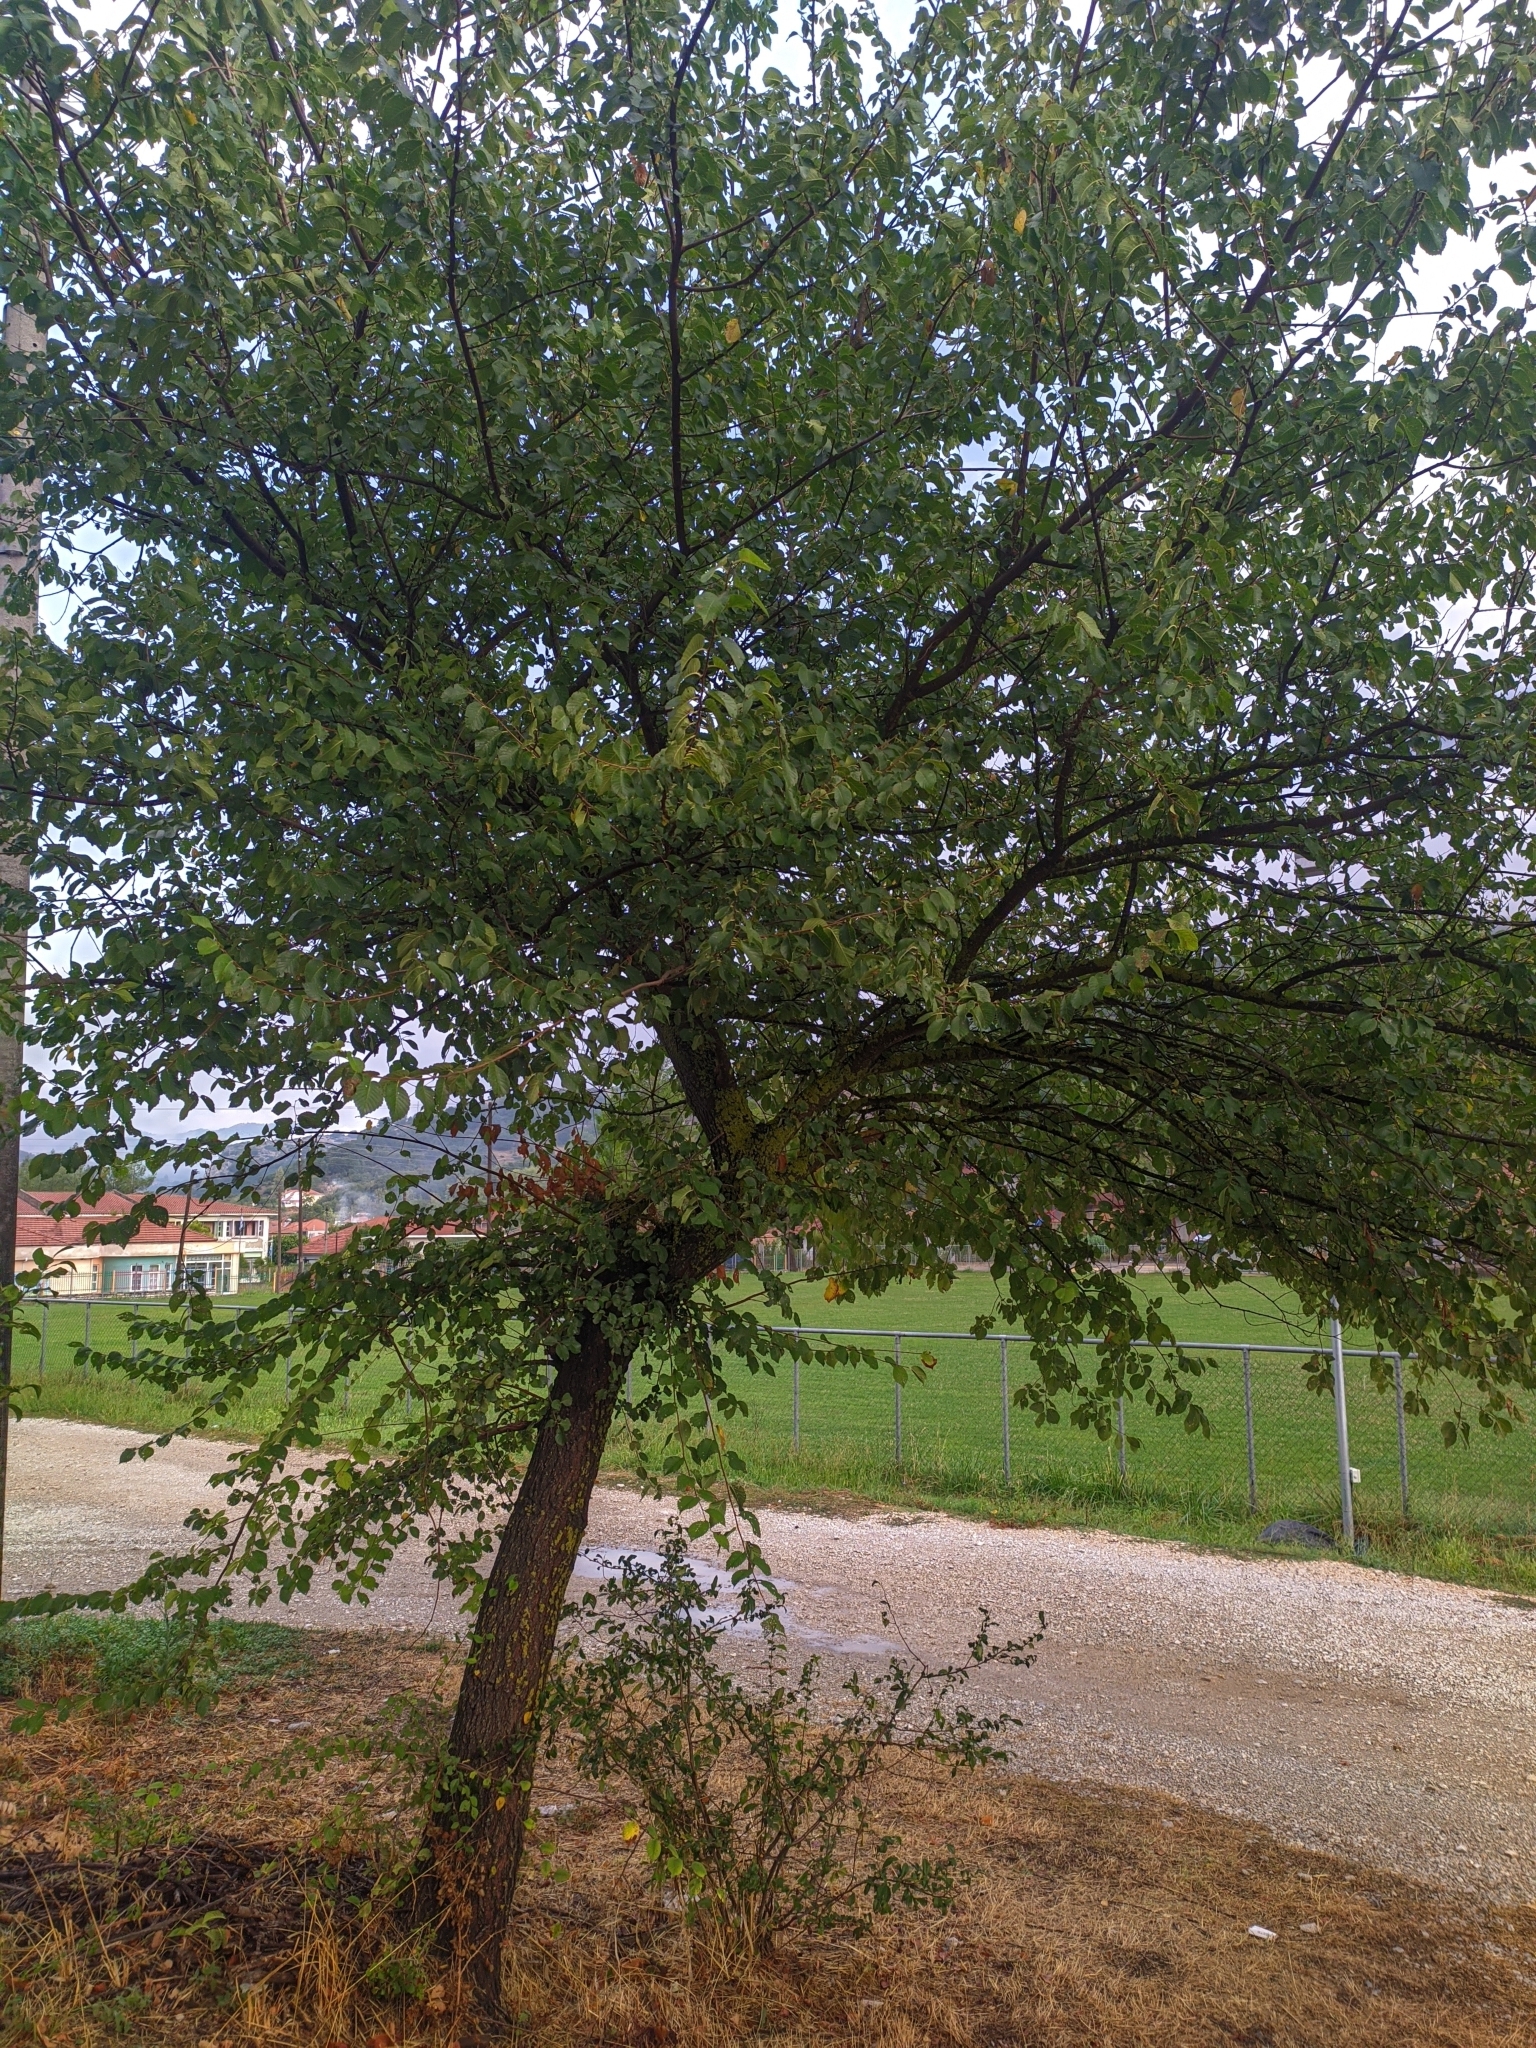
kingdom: Plantae
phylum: Tracheophyta
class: Magnoliopsida
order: Rosales
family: Ulmaceae
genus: Ulmus
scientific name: Ulmus minor
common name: Small-leaved elm
